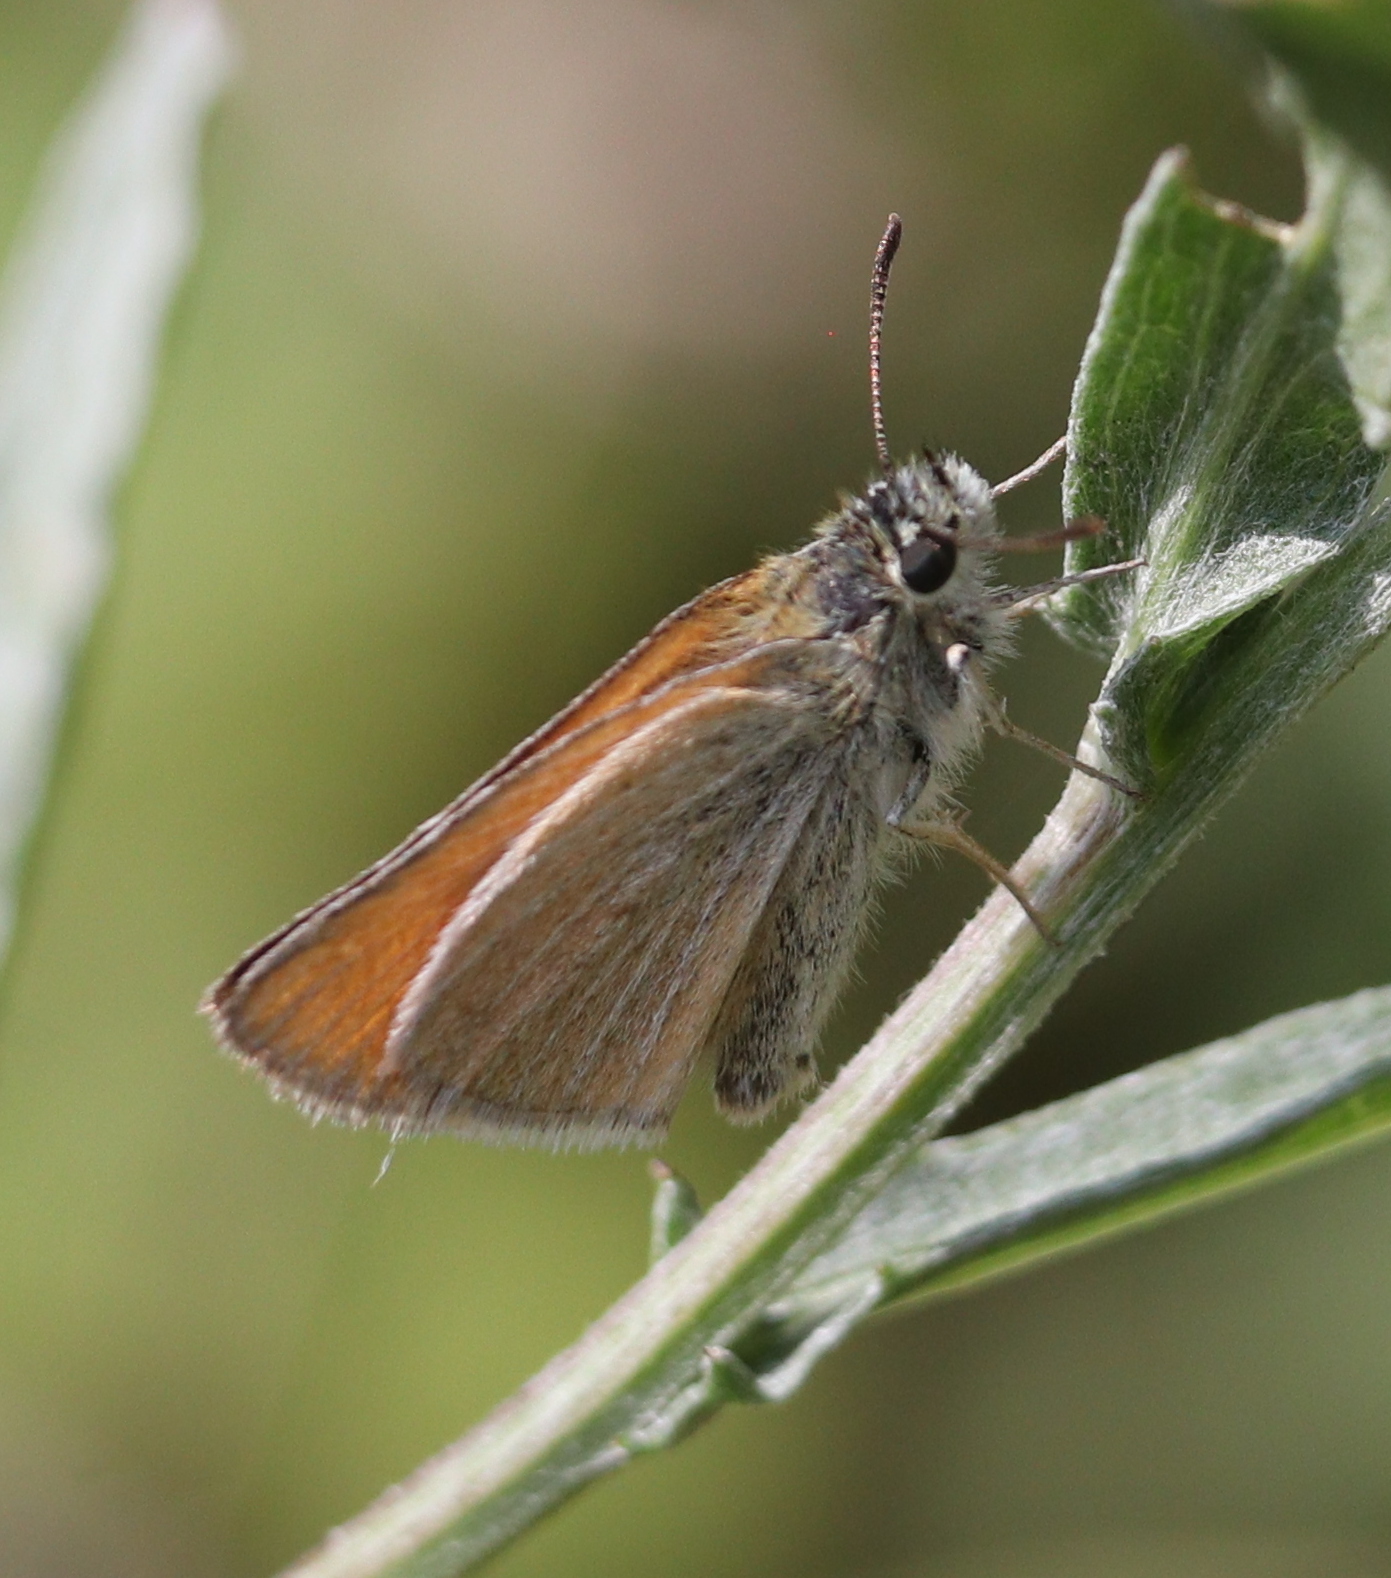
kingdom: Animalia
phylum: Arthropoda
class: Insecta
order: Lepidoptera
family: Hesperiidae
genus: Thymelicus
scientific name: Thymelicus sylvestris
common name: Small skipper
